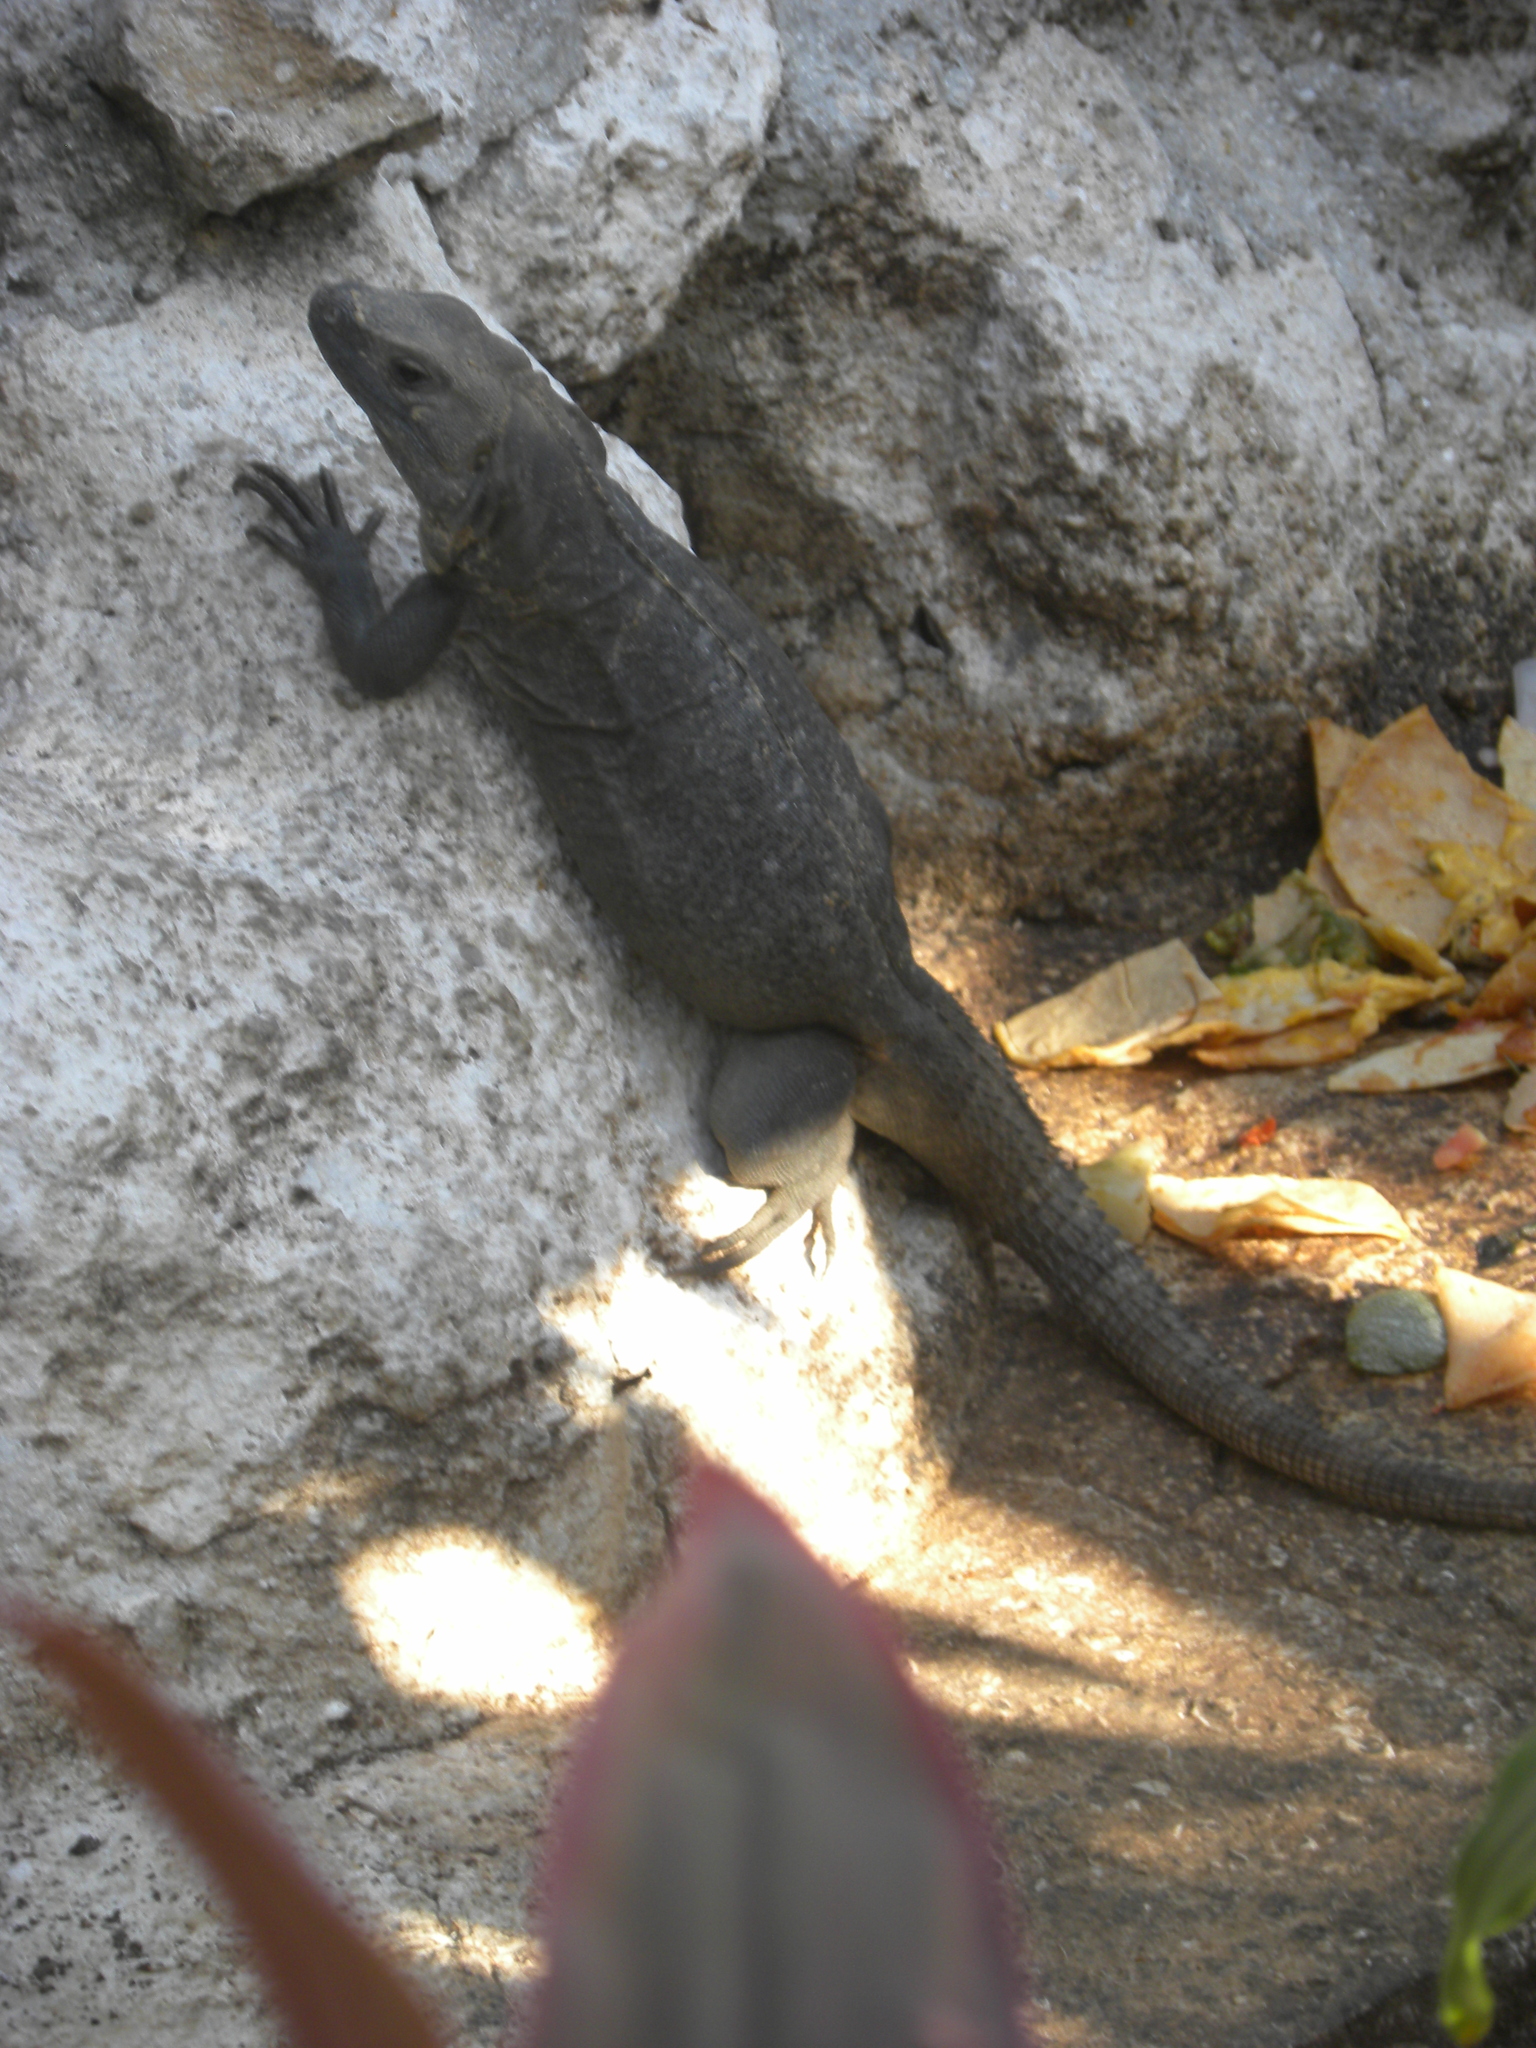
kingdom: Animalia
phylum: Chordata
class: Squamata
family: Iguanidae
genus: Ctenosaura
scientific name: Ctenosaura similis
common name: Black spiny-tailed iguana
